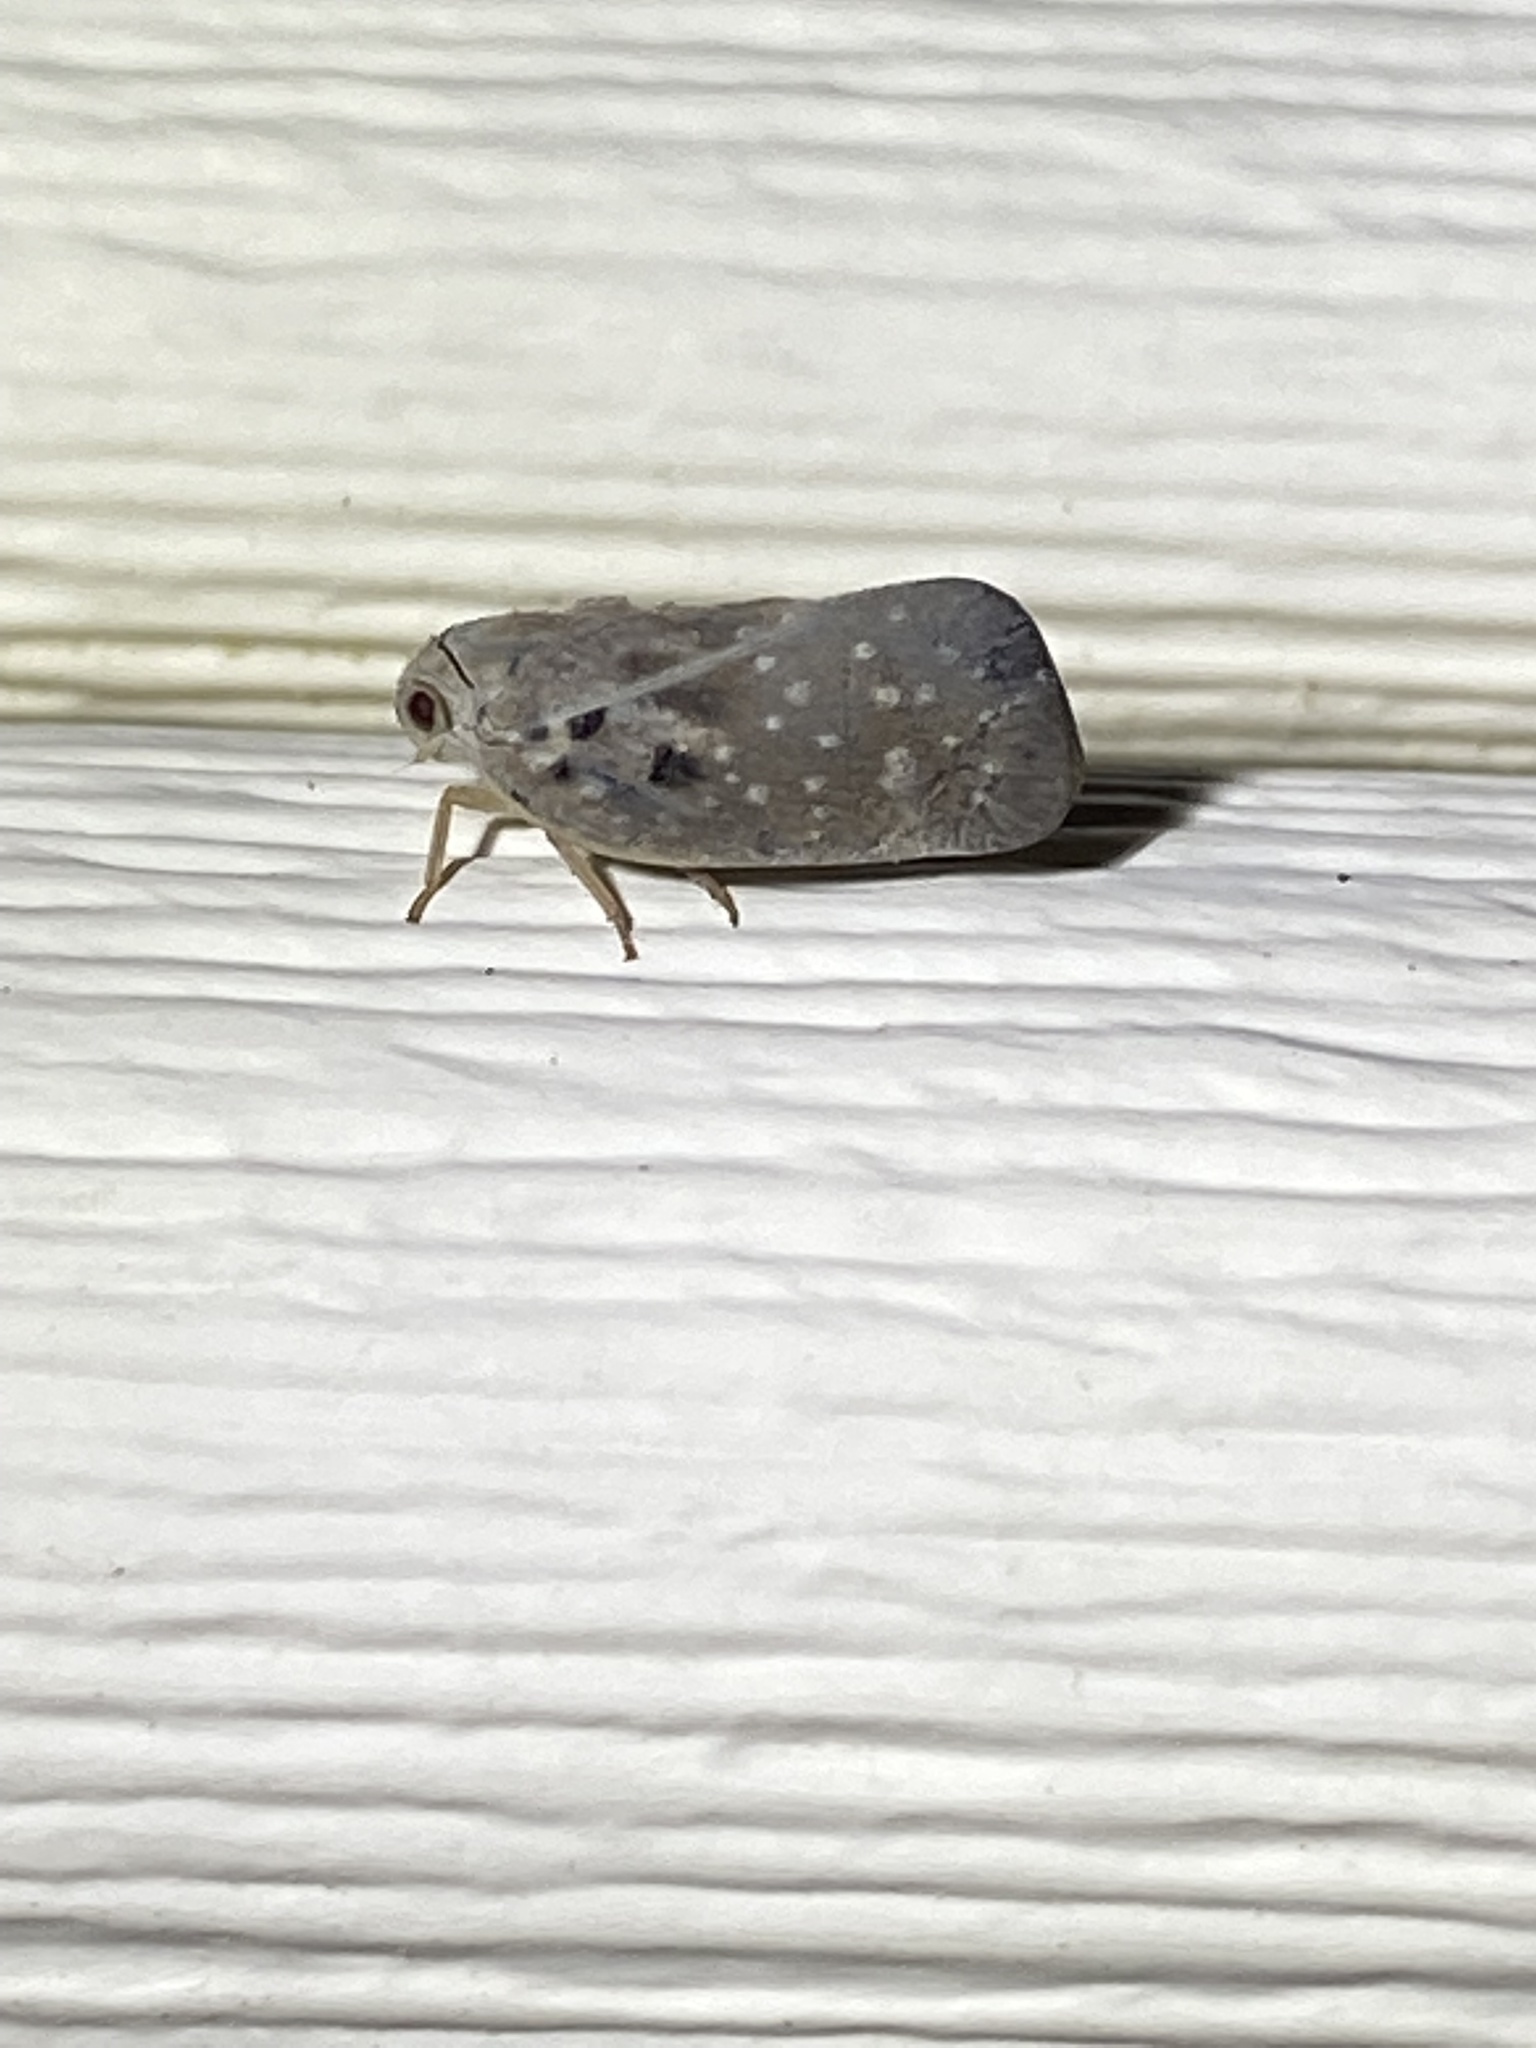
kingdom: Animalia
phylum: Arthropoda
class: Insecta
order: Hemiptera
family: Flatidae
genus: Metcalfa
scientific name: Metcalfa pruinosa
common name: Citrus flatid planthopper
